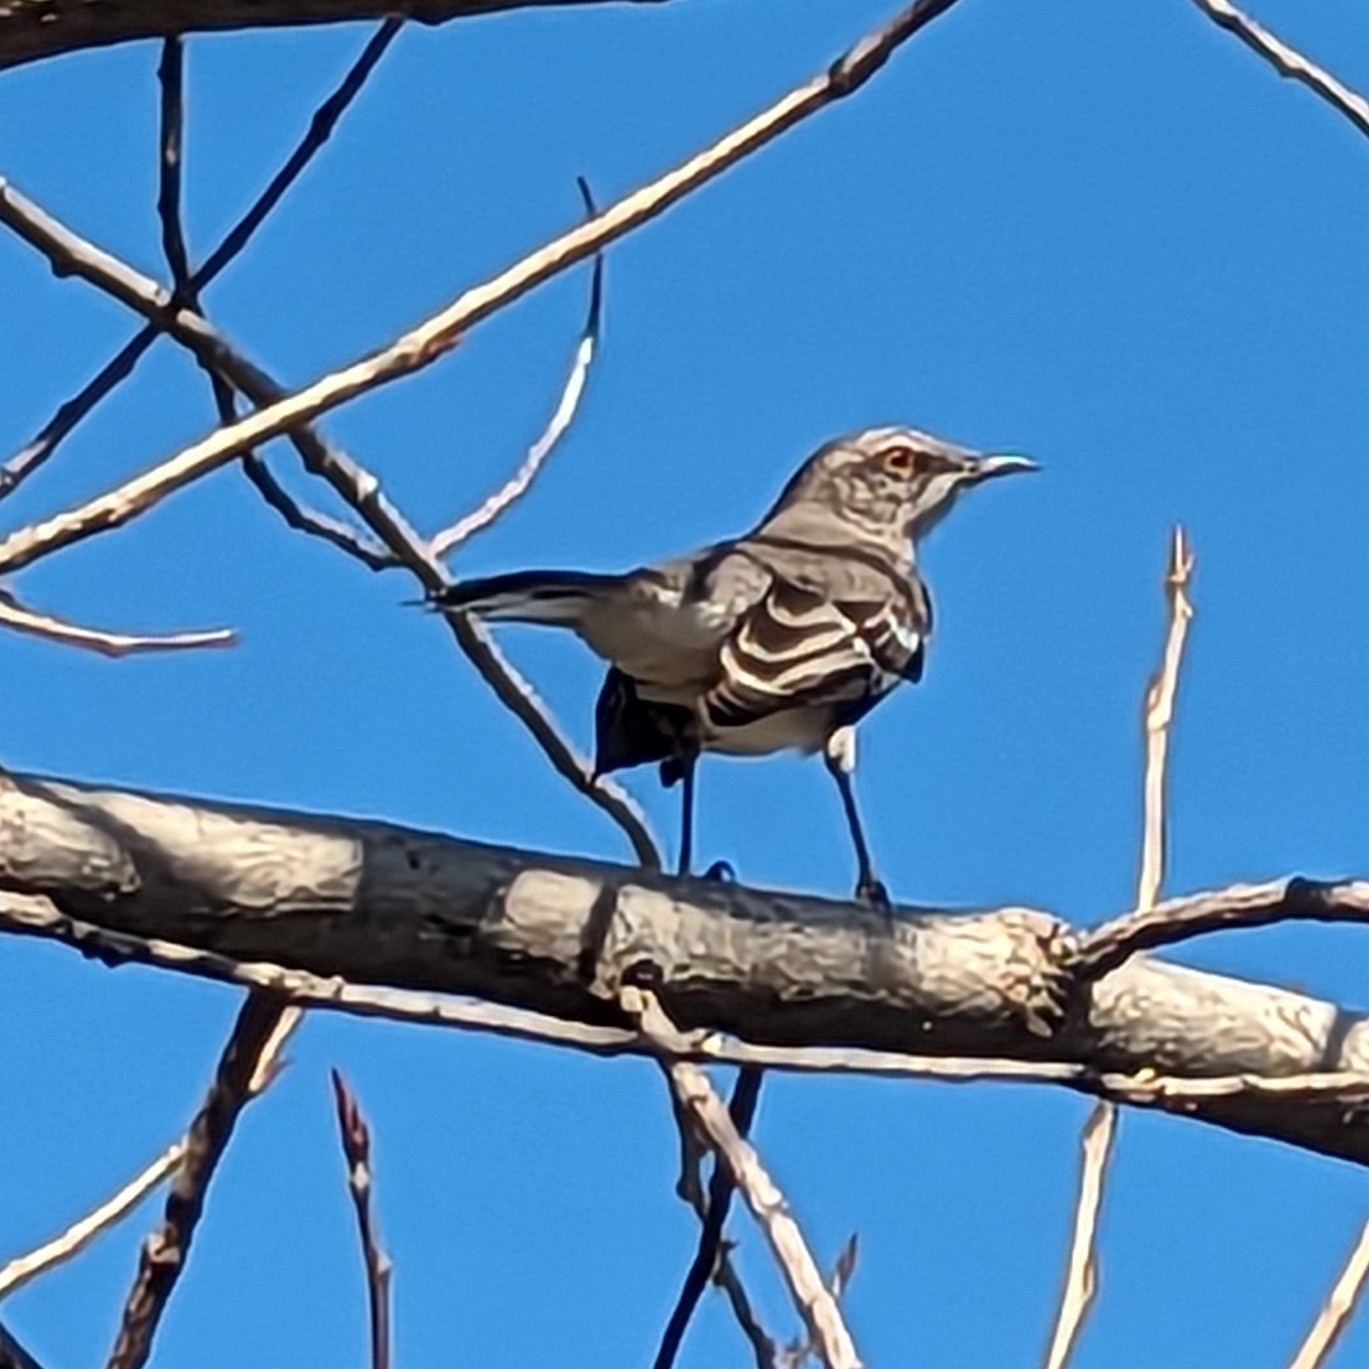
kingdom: Animalia
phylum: Chordata
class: Aves
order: Passeriformes
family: Mimidae
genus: Mimus
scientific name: Mimus polyglottos
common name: Northern mockingbird
